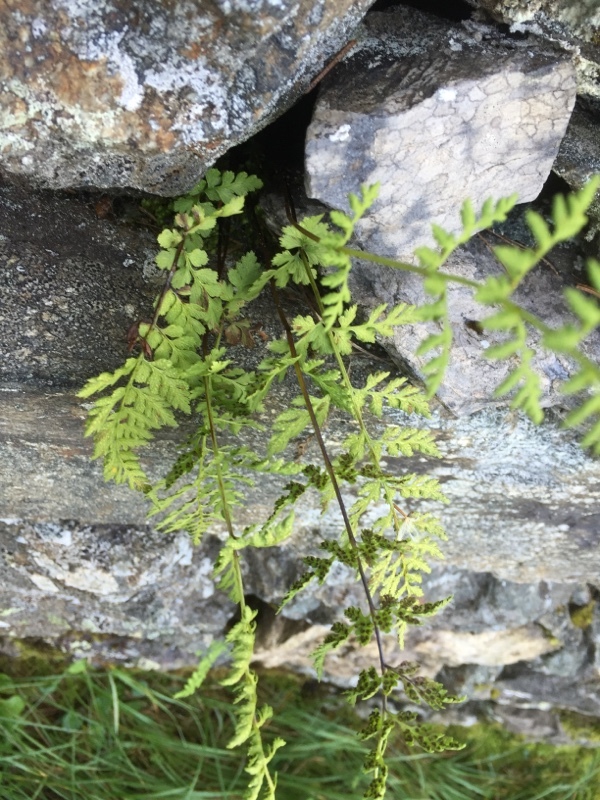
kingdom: Plantae
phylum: Tracheophyta
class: Polypodiopsida
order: Polypodiales
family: Cystopteridaceae
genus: Cystopteris
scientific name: Cystopteris fragilis
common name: Brittle bladder fern
